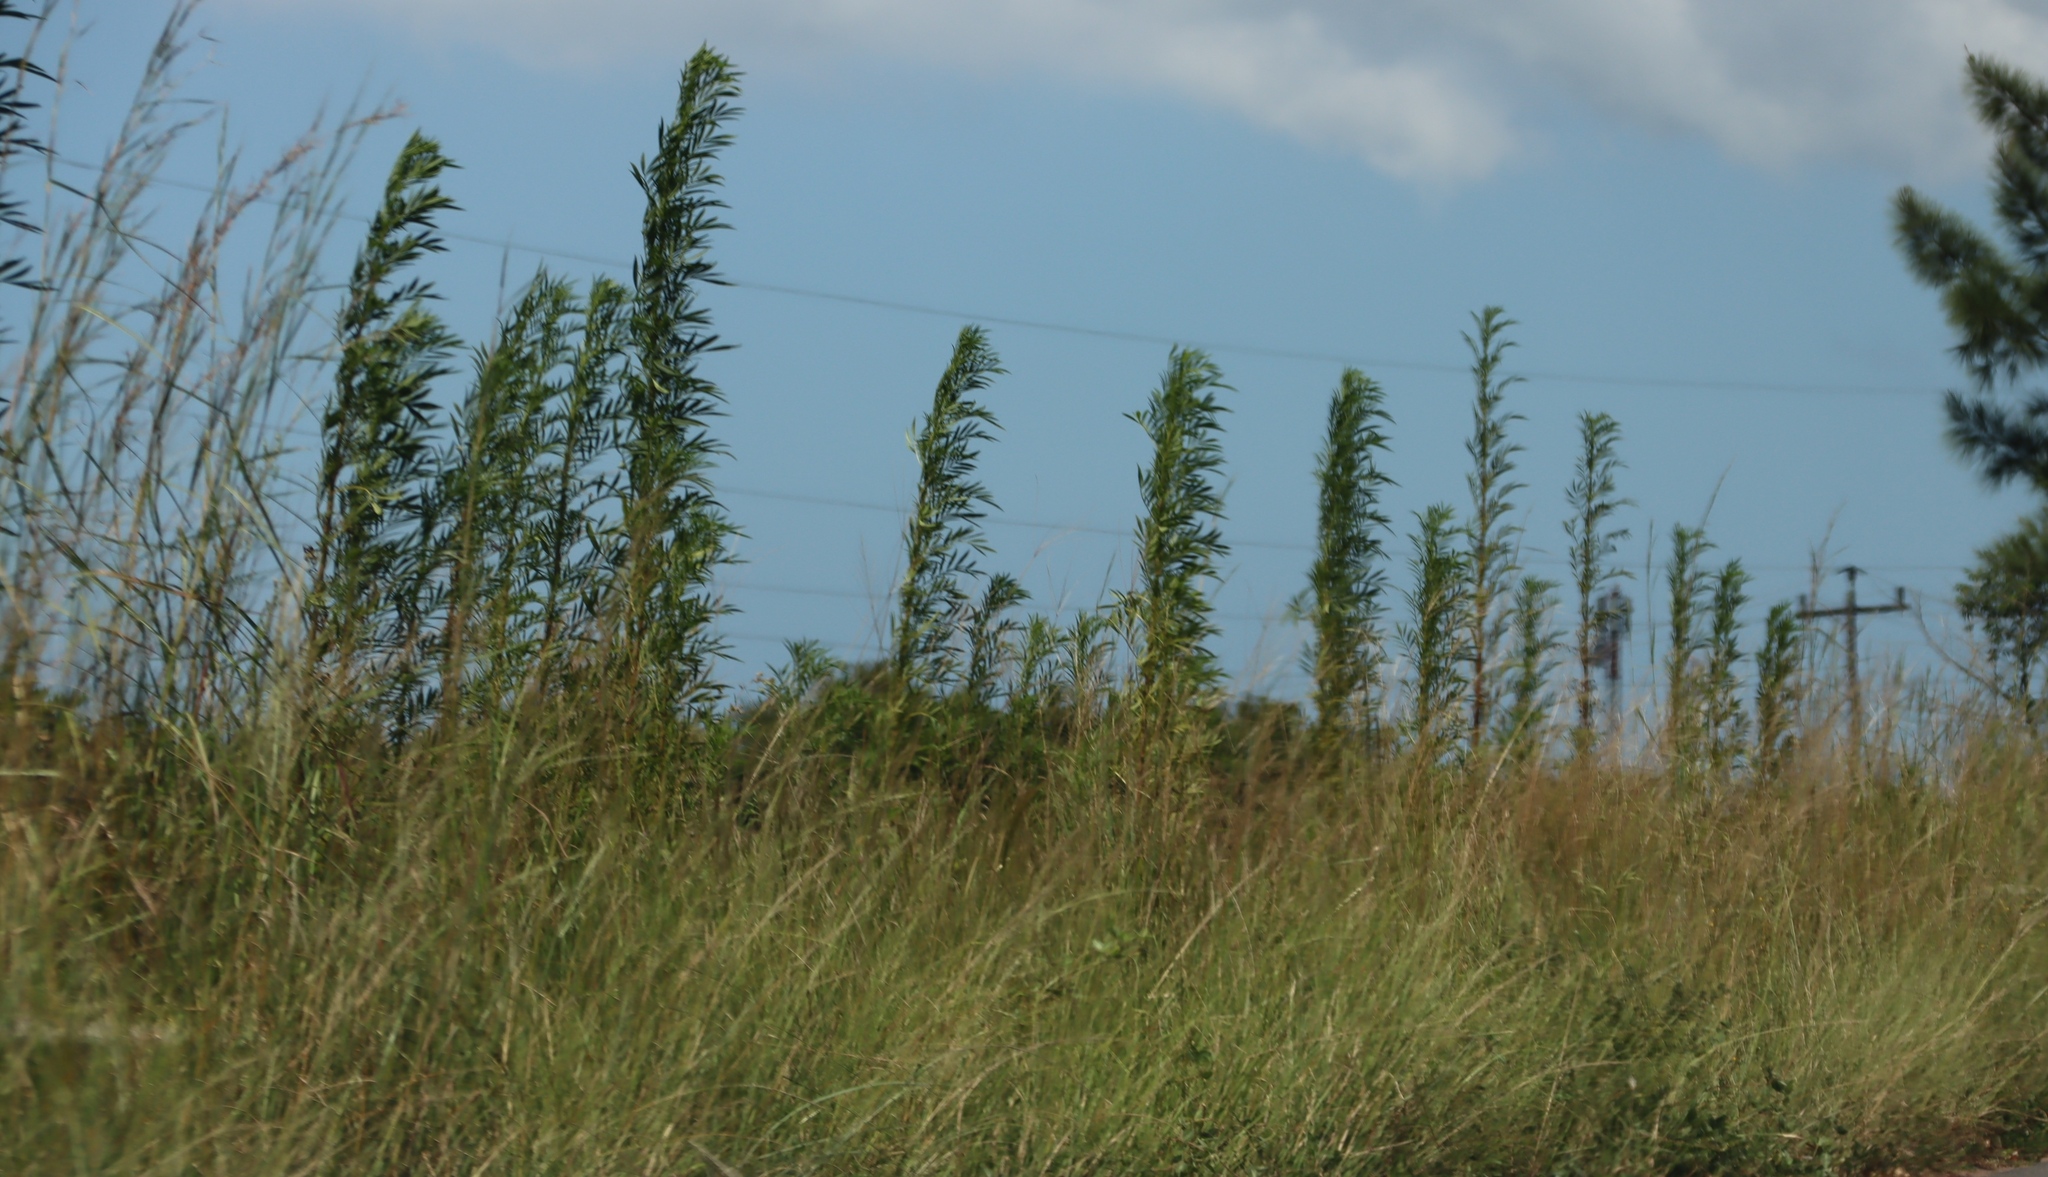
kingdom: Plantae
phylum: Tracheophyta
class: Magnoliopsida
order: Asterales
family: Asteraceae
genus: Tagetes
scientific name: Tagetes minuta
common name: Muster john henry
